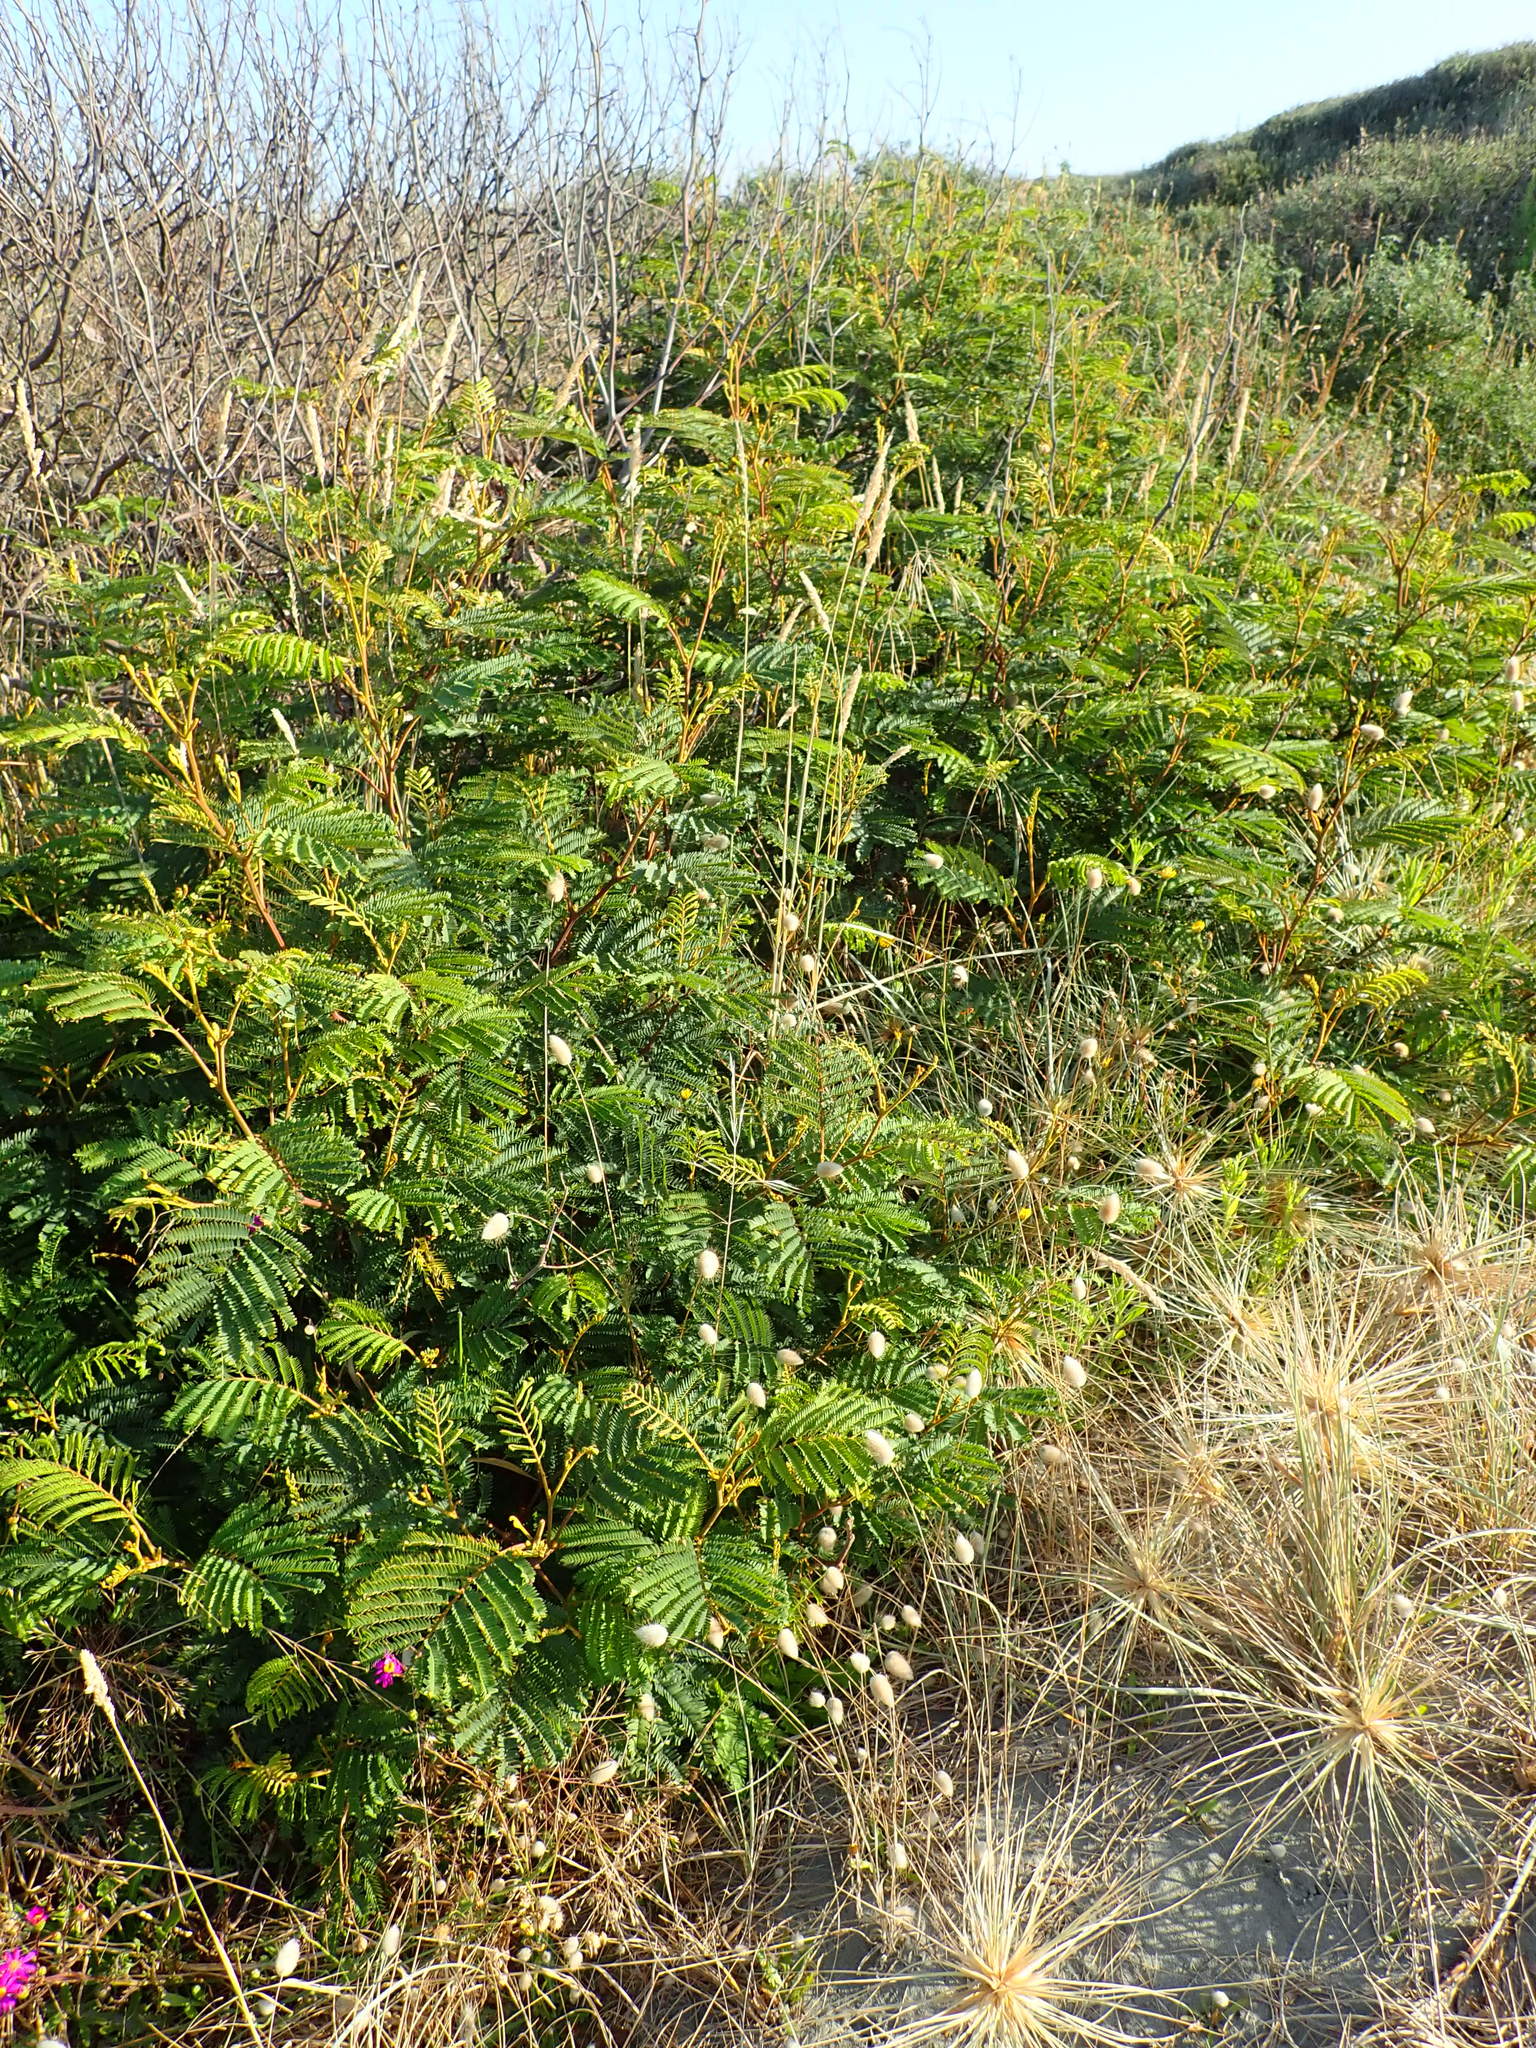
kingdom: Plantae
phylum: Tracheophyta
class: Magnoliopsida
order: Fabales
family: Fabaceae
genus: Paraserianthes
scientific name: Paraserianthes lophantha
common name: Plume albizia
